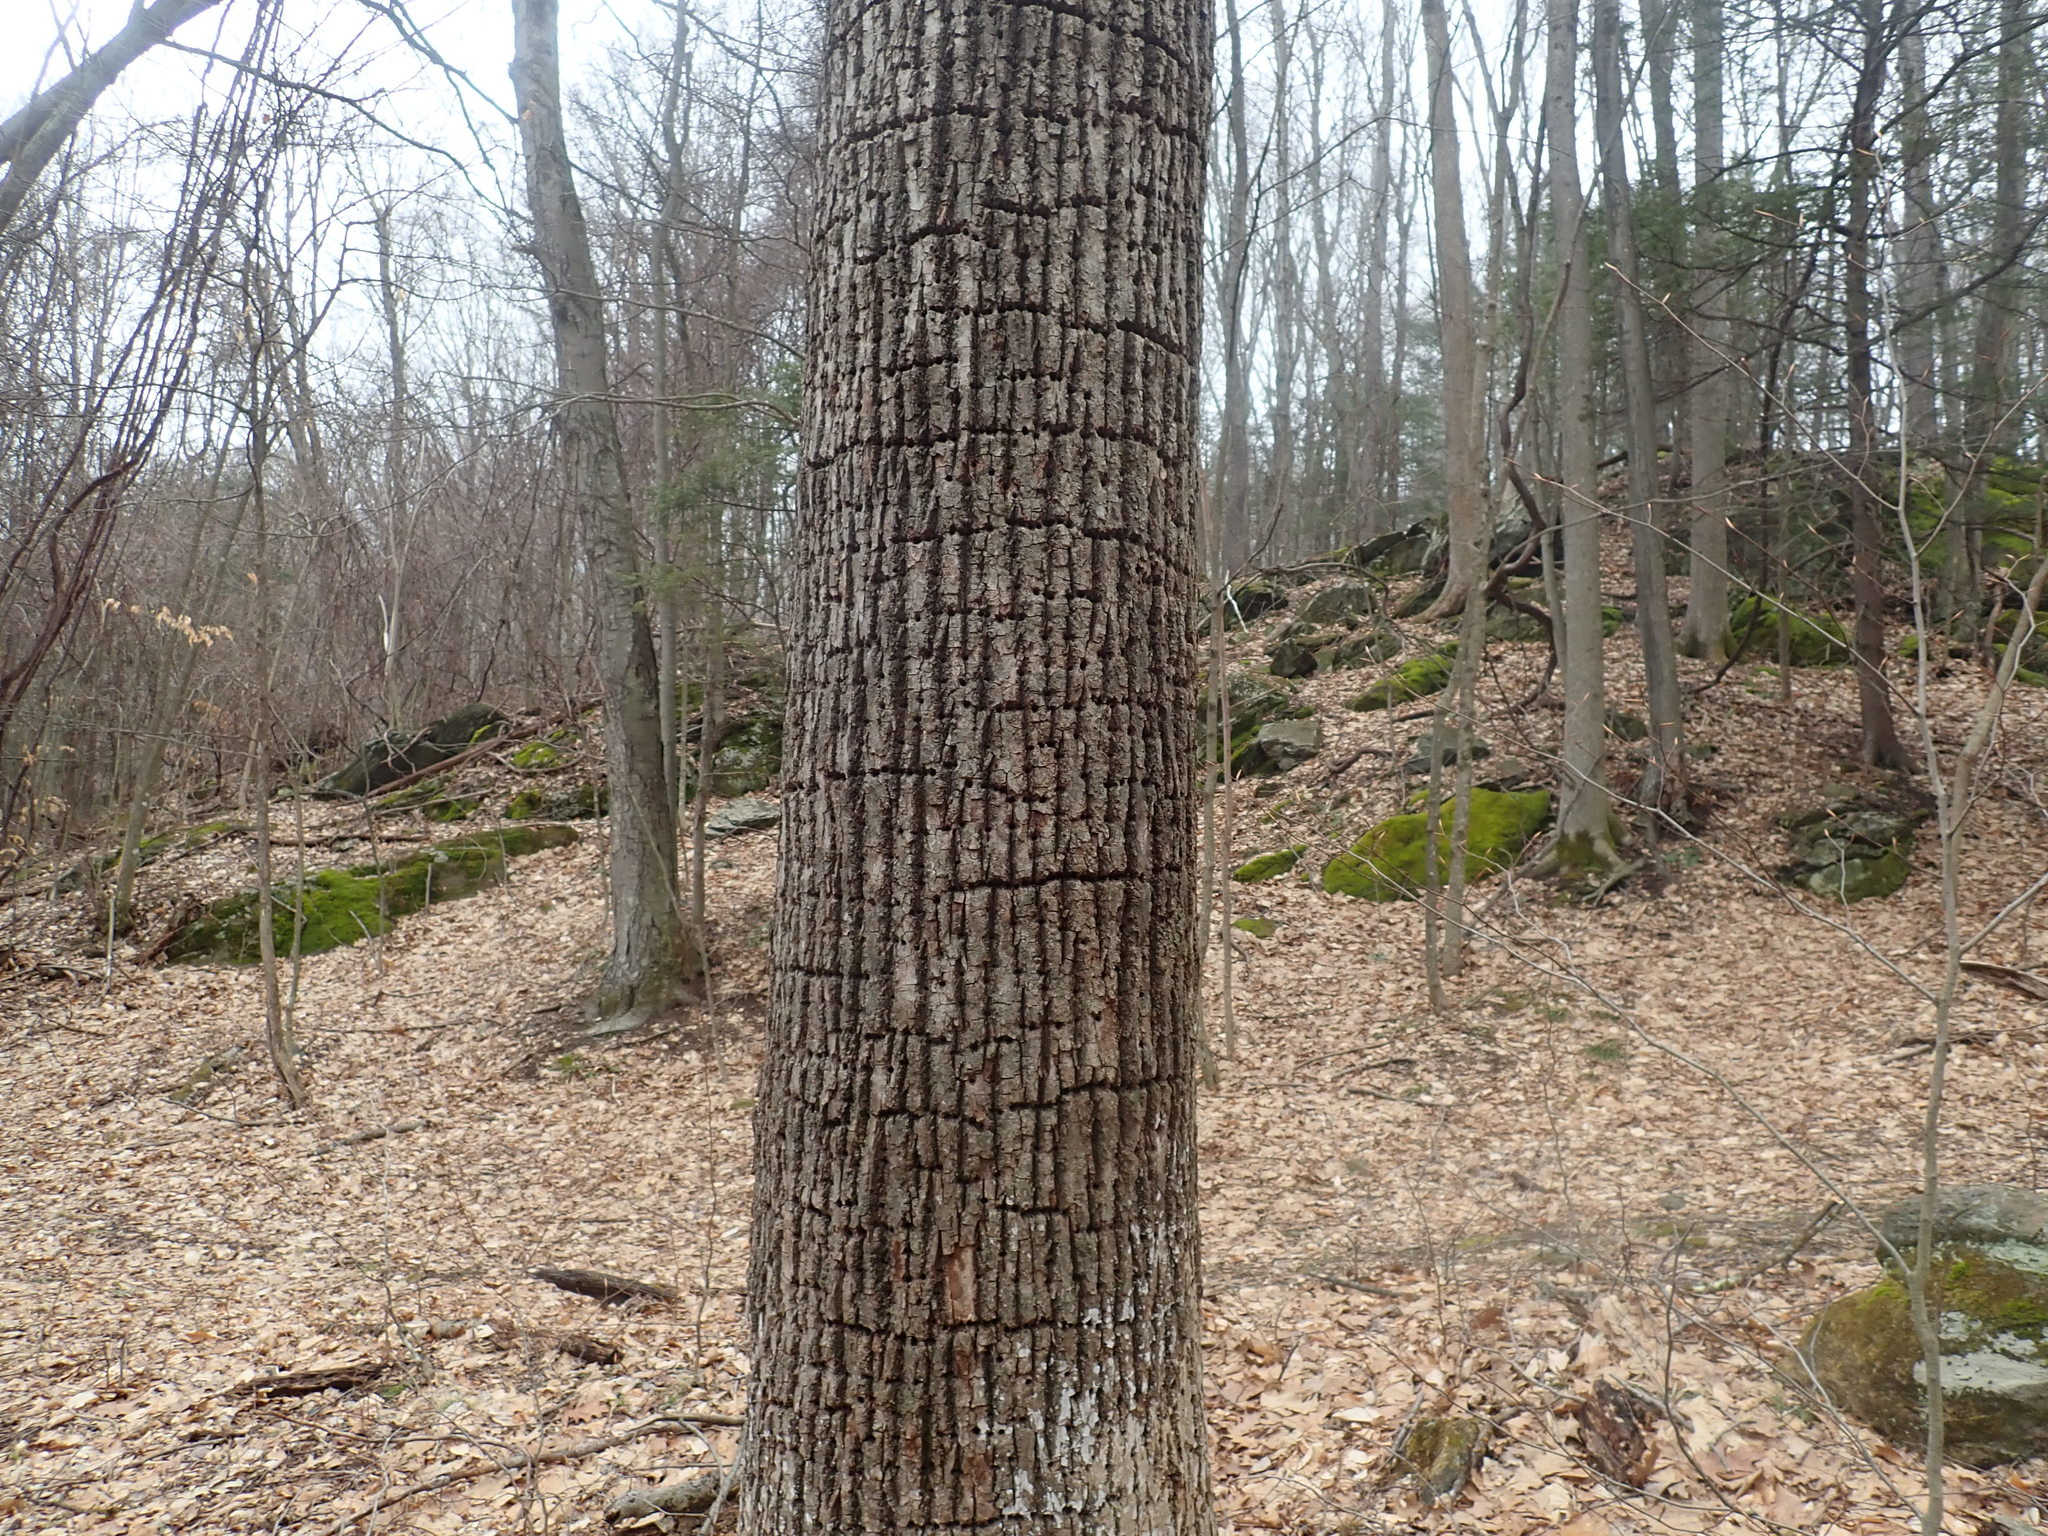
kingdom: Animalia
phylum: Chordata
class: Aves
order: Piciformes
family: Picidae
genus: Sphyrapicus
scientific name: Sphyrapicus varius
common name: Yellow-bellied sapsucker
